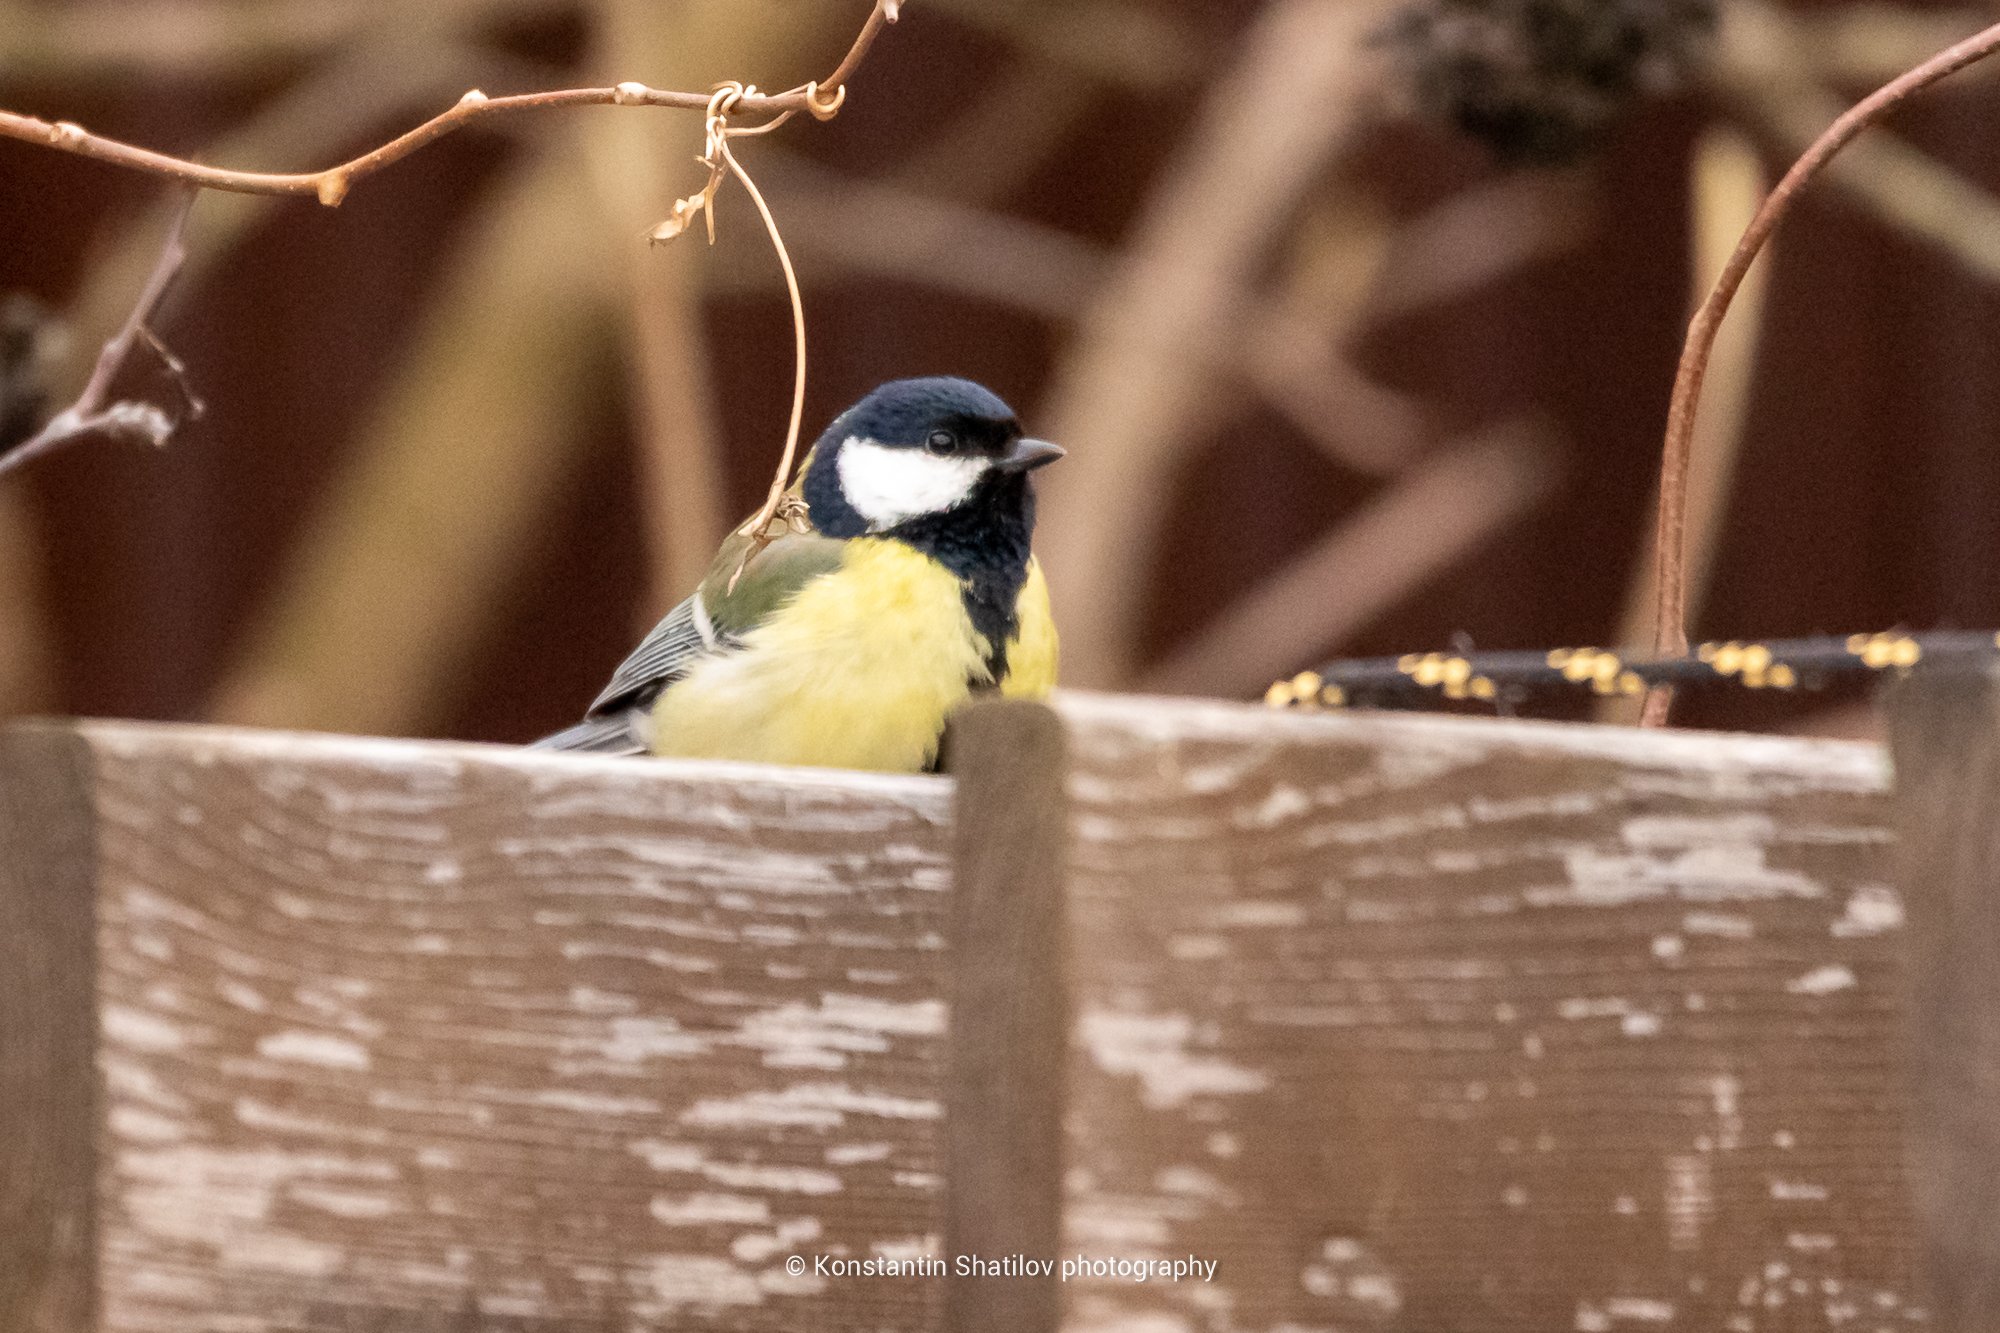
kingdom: Animalia
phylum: Chordata
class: Aves
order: Passeriformes
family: Paridae
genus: Parus
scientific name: Parus major
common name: Great tit
